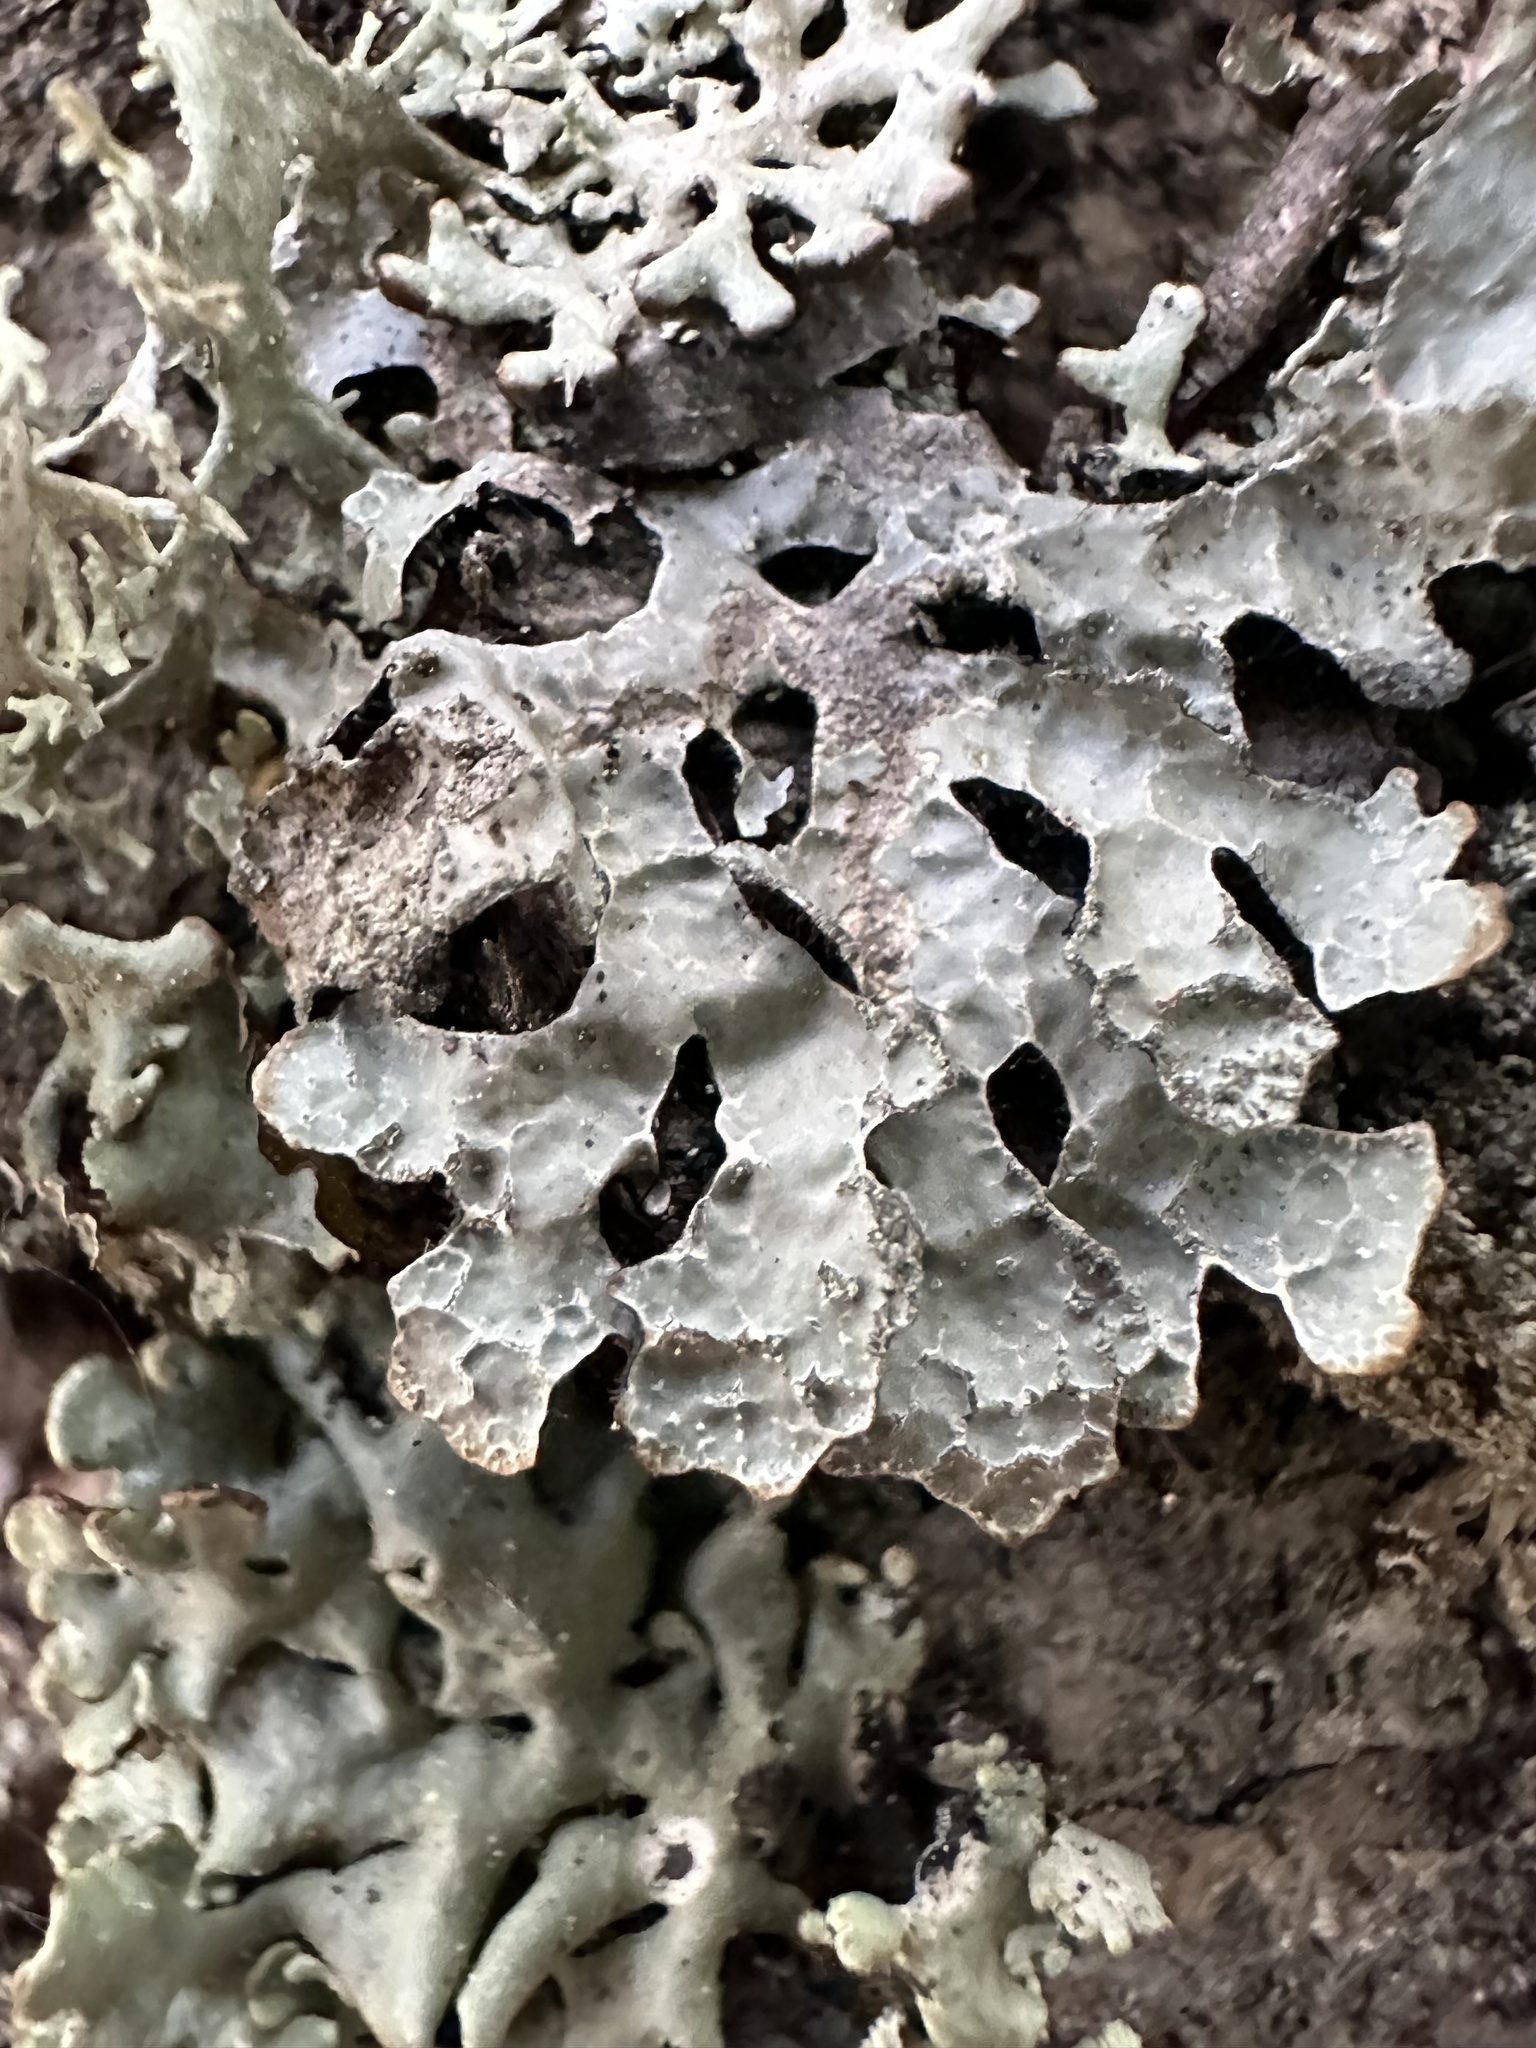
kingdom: Fungi
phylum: Ascomycota
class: Lecanoromycetes
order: Lecanorales
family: Parmeliaceae
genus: Parmelia
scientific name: Parmelia sulcata
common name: Netted shield lichen
